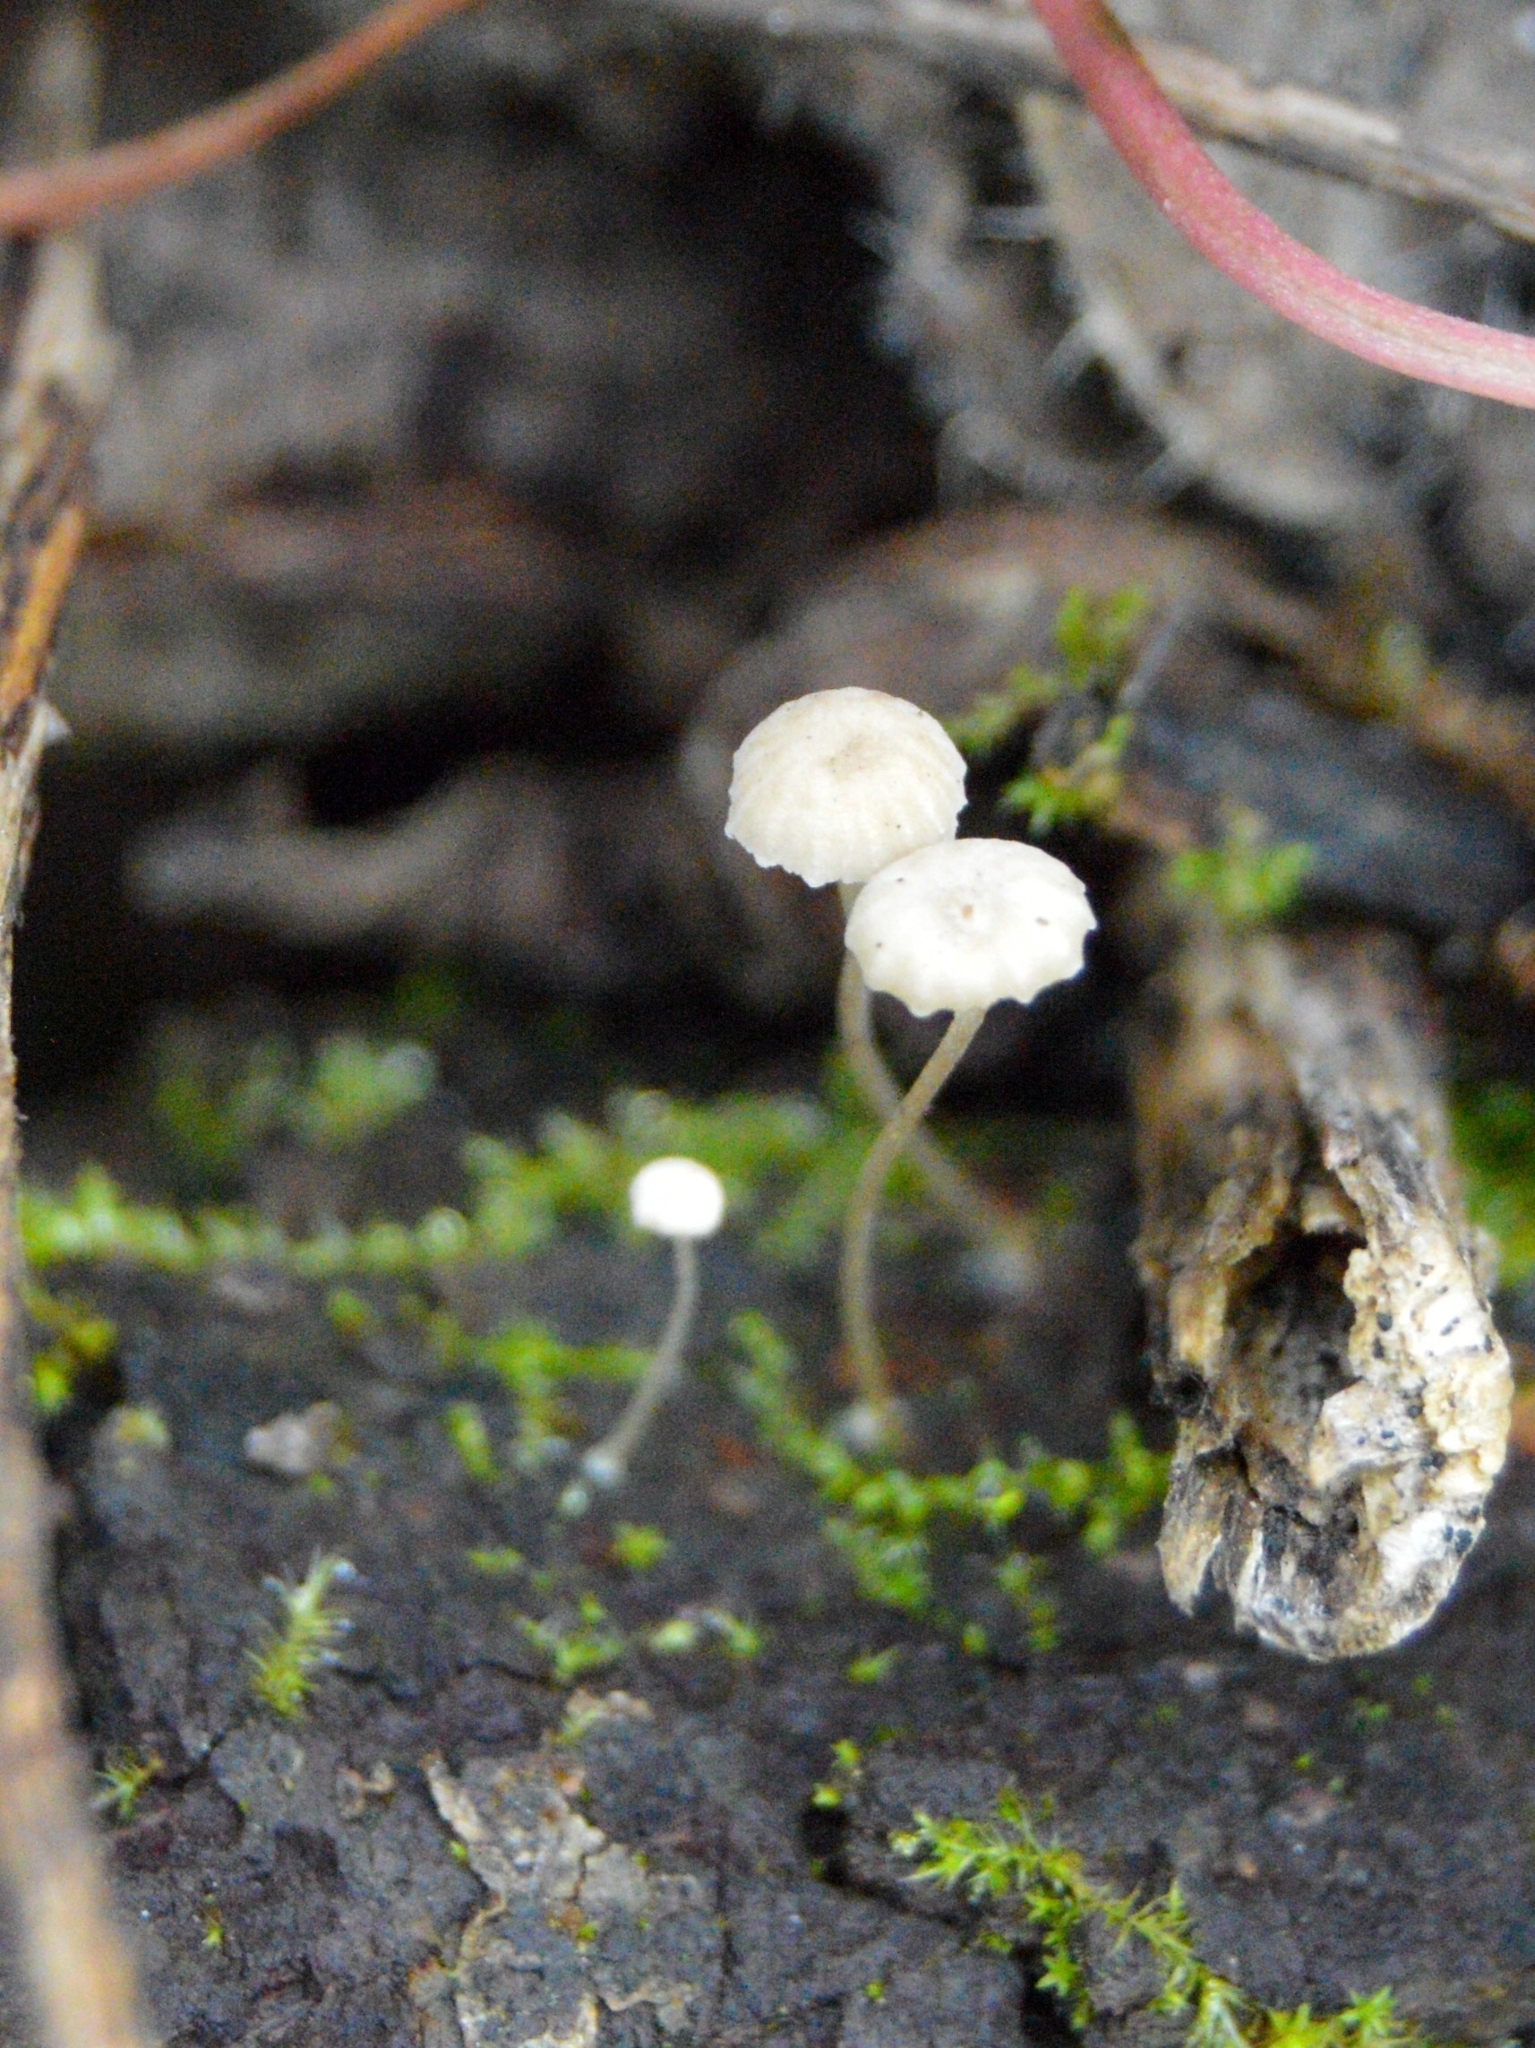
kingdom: Fungi
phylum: Basidiomycota
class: Agaricomycetes
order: Agaricales
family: Porotheleaceae
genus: Phloeomana
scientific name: Phloeomana speirea
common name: Bark bonnet
